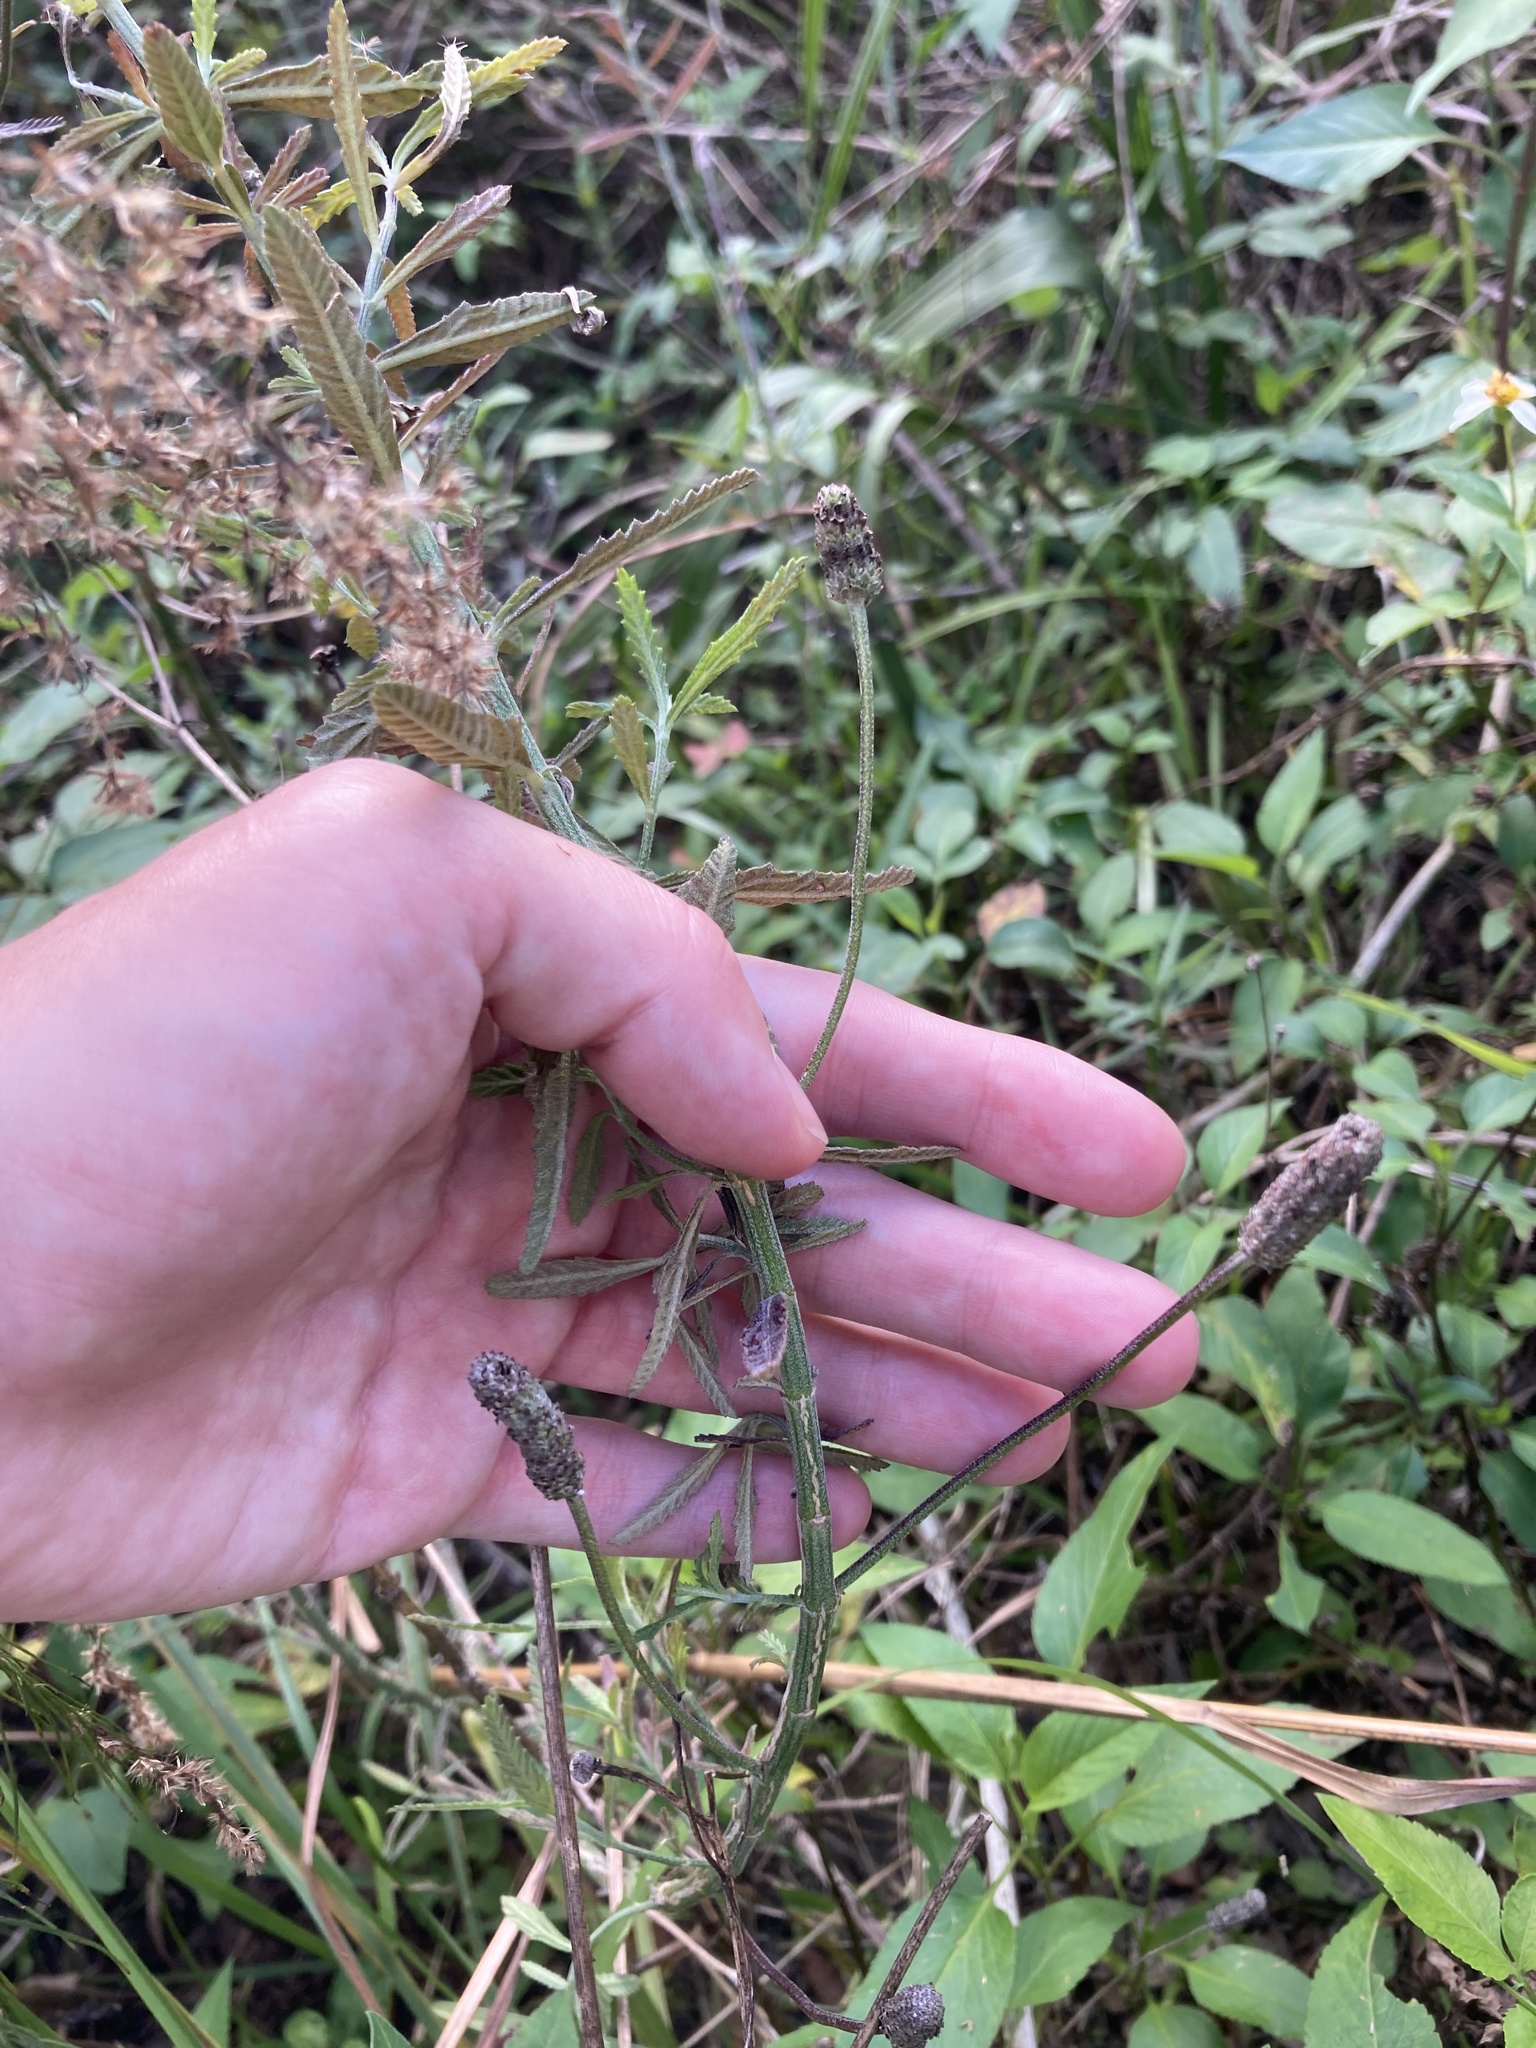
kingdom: Plantae
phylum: Tracheophyta
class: Magnoliopsida
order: Lamiales
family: Verbenaceae
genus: Lippia
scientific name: Lippia stoechadifolia
